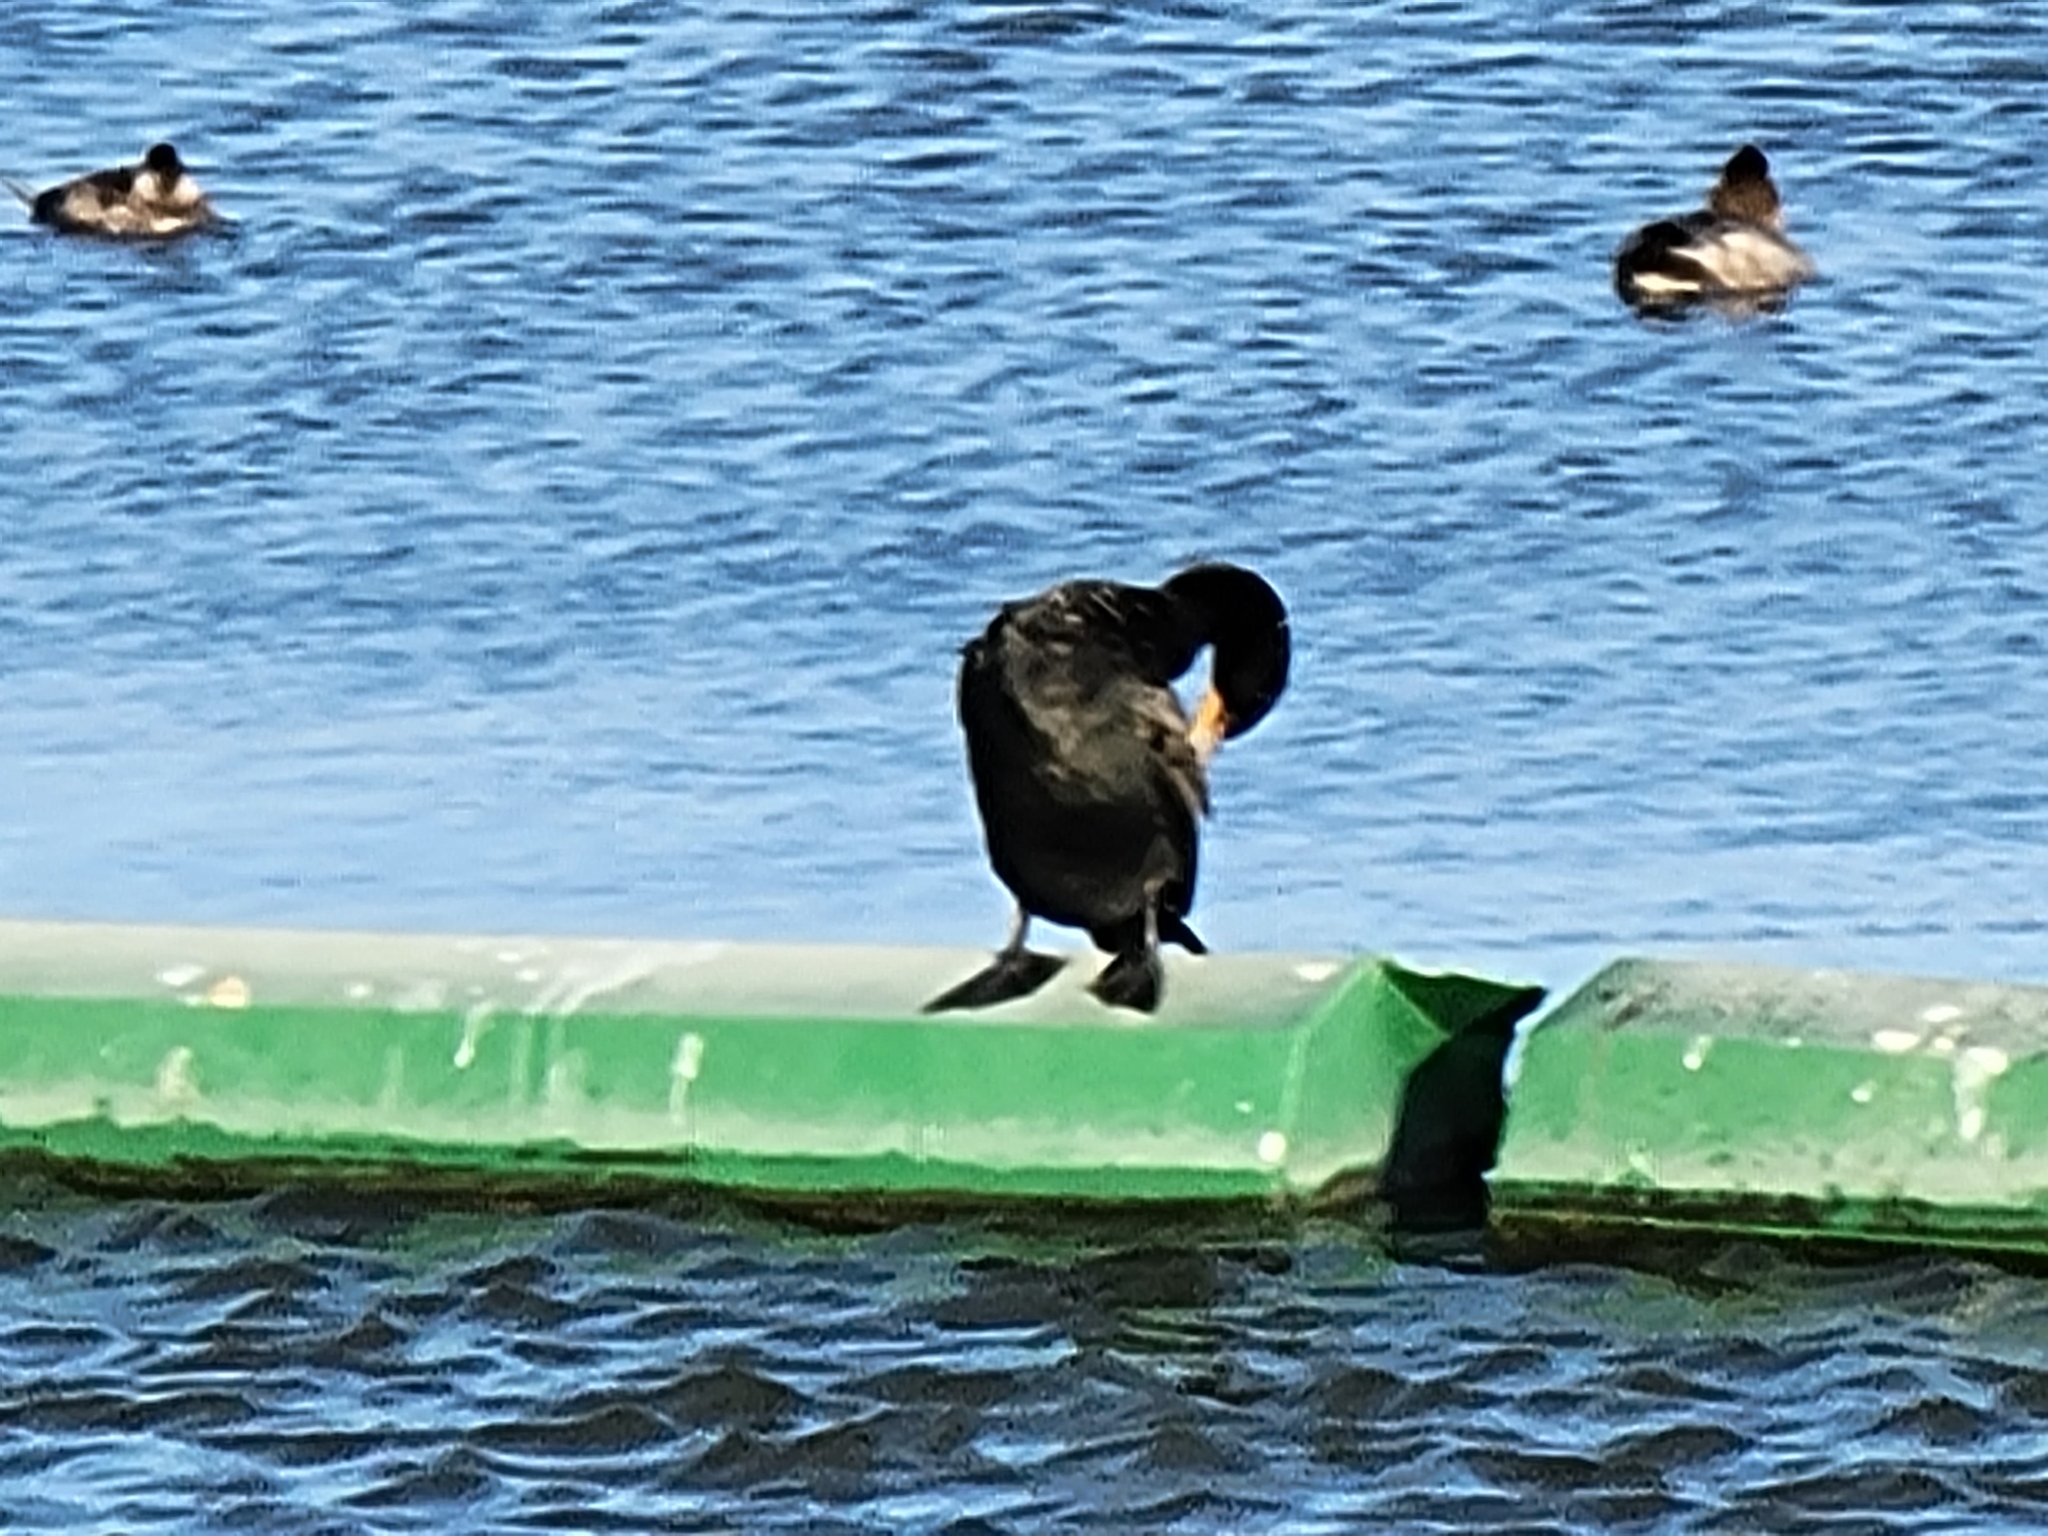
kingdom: Animalia
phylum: Chordata
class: Aves
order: Suliformes
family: Phalacrocoracidae
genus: Phalacrocorax
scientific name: Phalacrocorax auritus
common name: Double-crested cormorant
